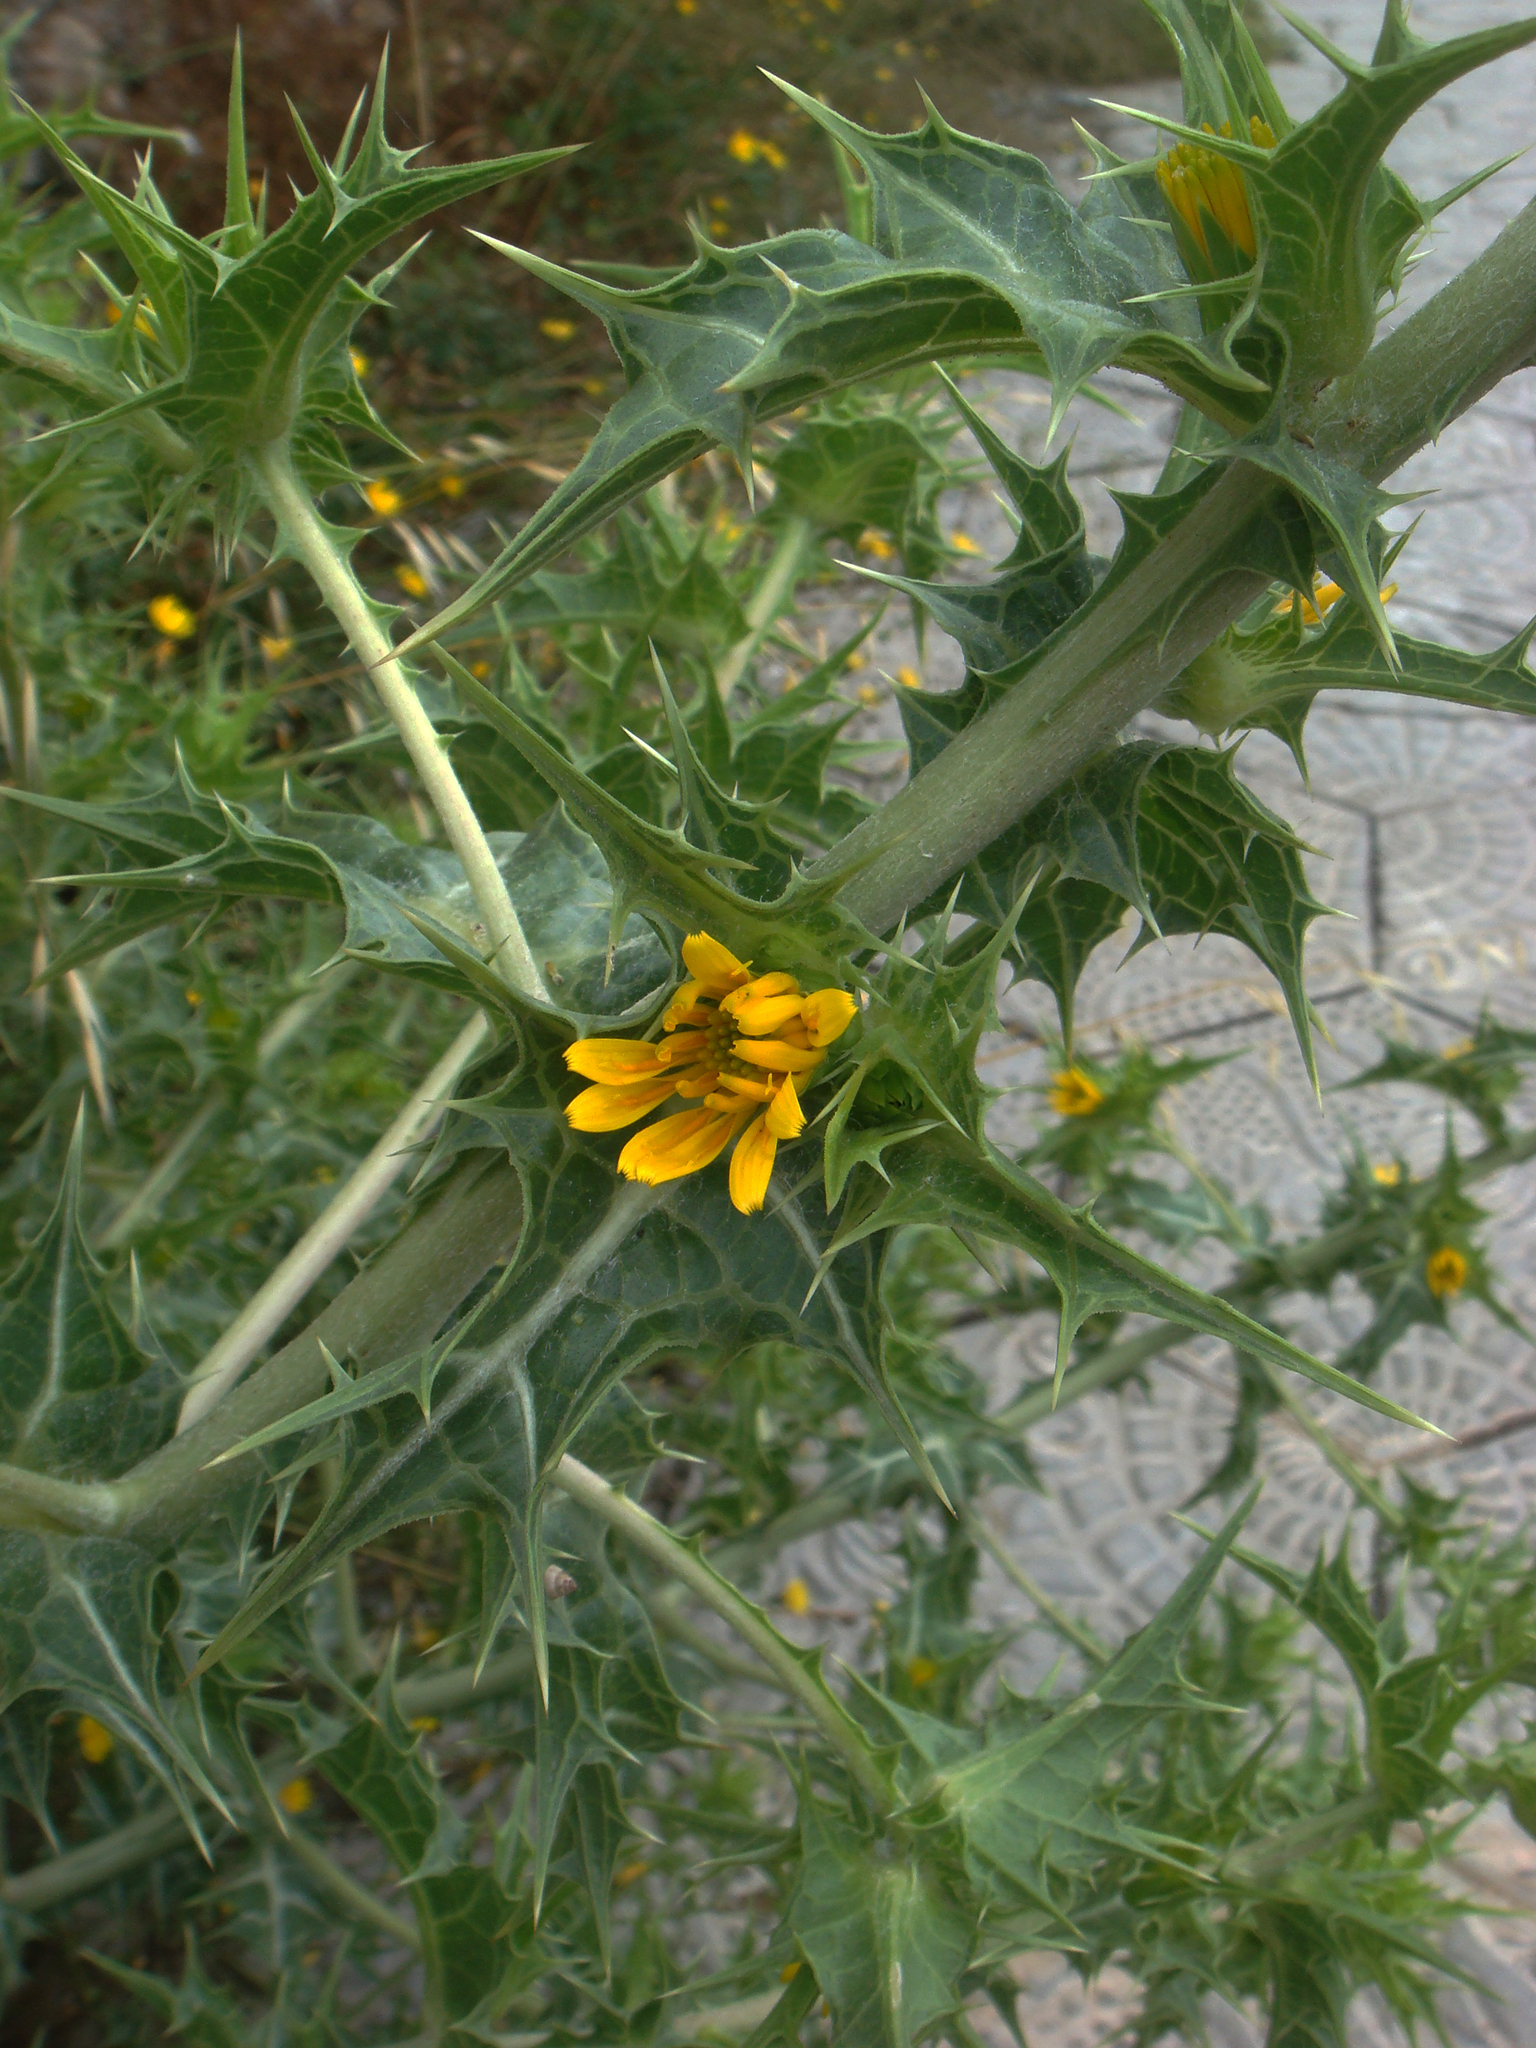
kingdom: Plantae
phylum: Tracheophyta
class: Magnoliopsida
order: Asterales
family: Asteraceae
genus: Scolymus
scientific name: Scolymus hispanicus
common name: Golden thistle
